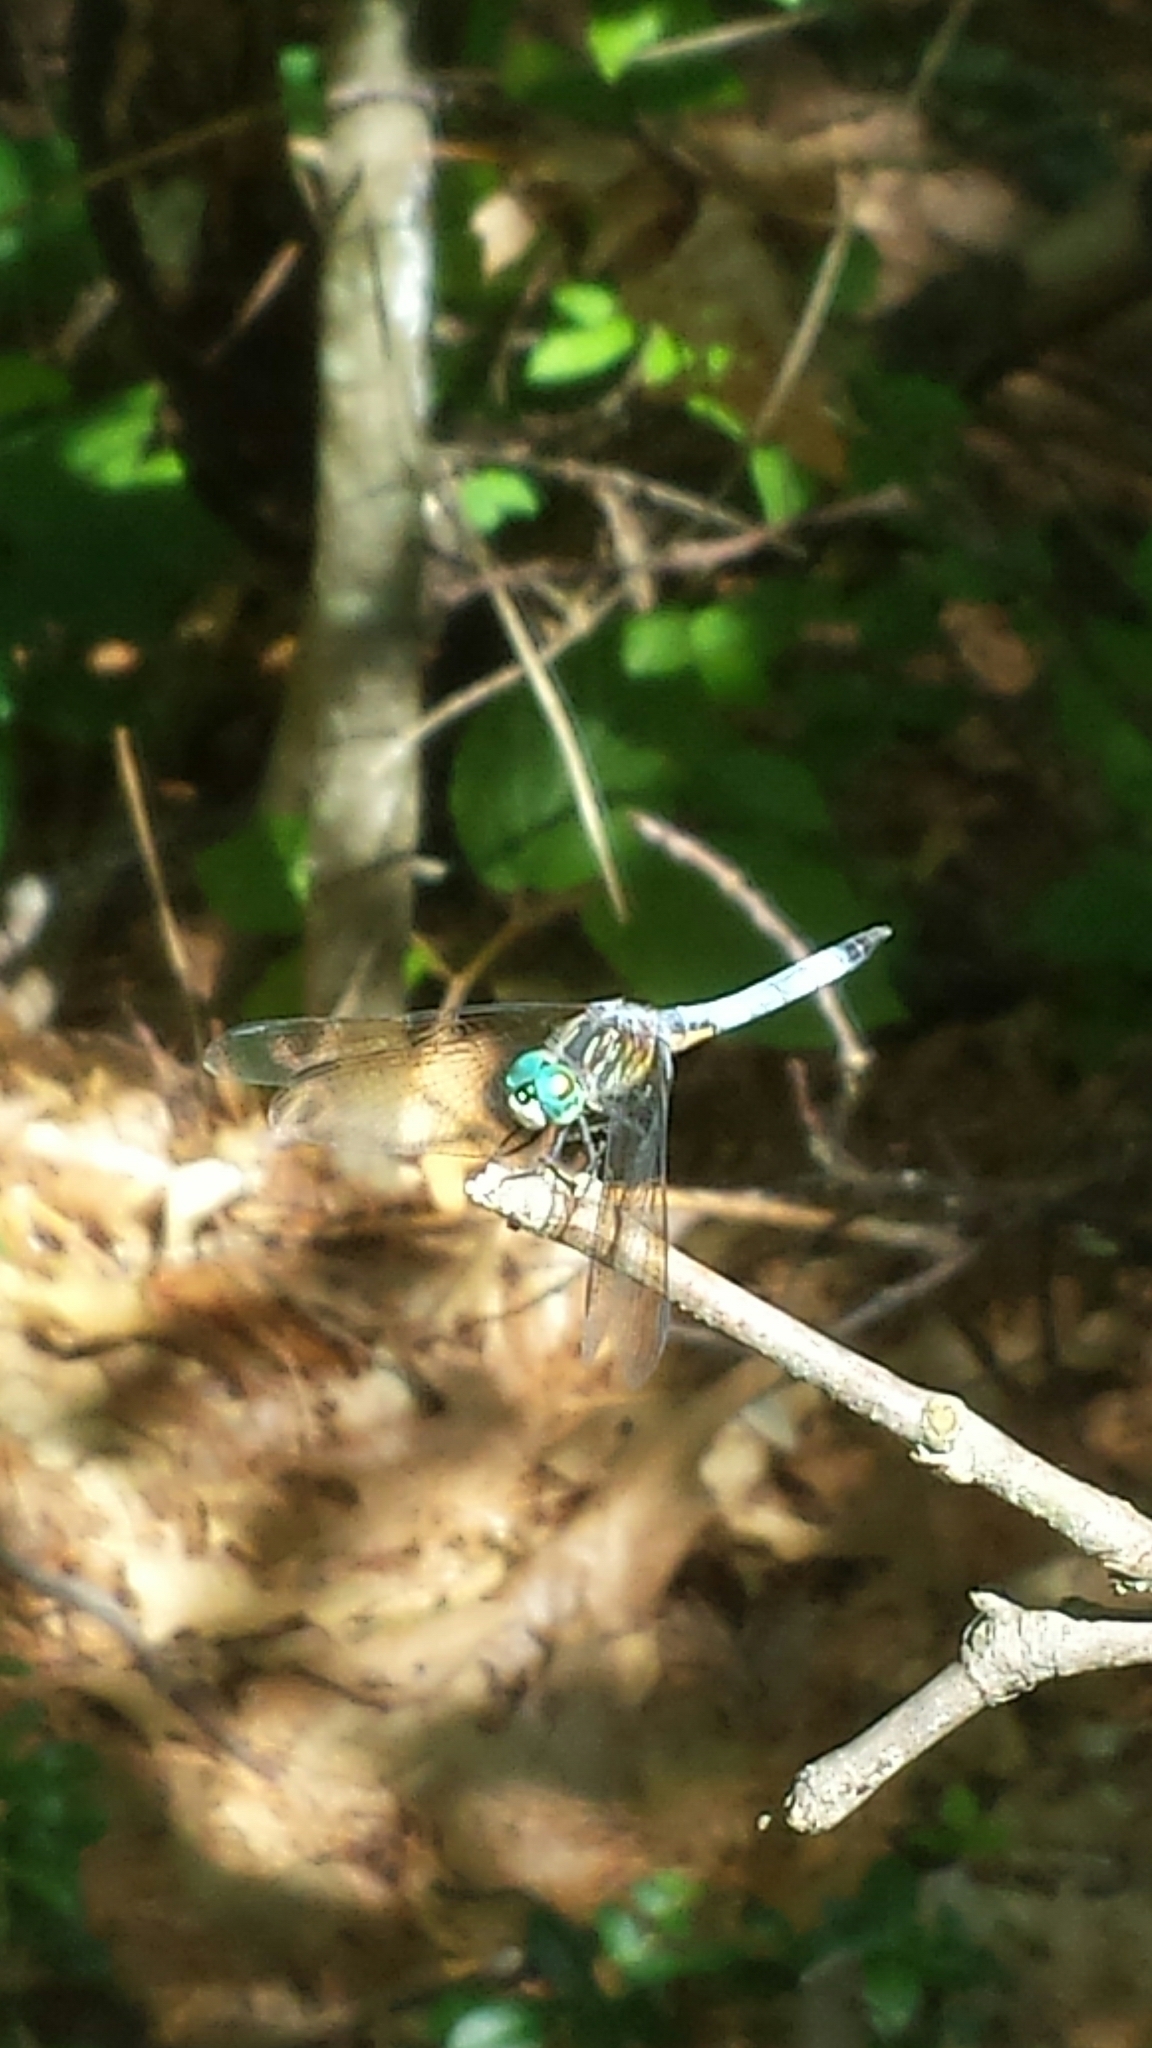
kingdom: Animalia
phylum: Arthropoda
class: Insecta
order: Odonata
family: Libellulidae
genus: Pachydiplax
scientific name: Pachydiplax longipennis
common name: Blue dasher
